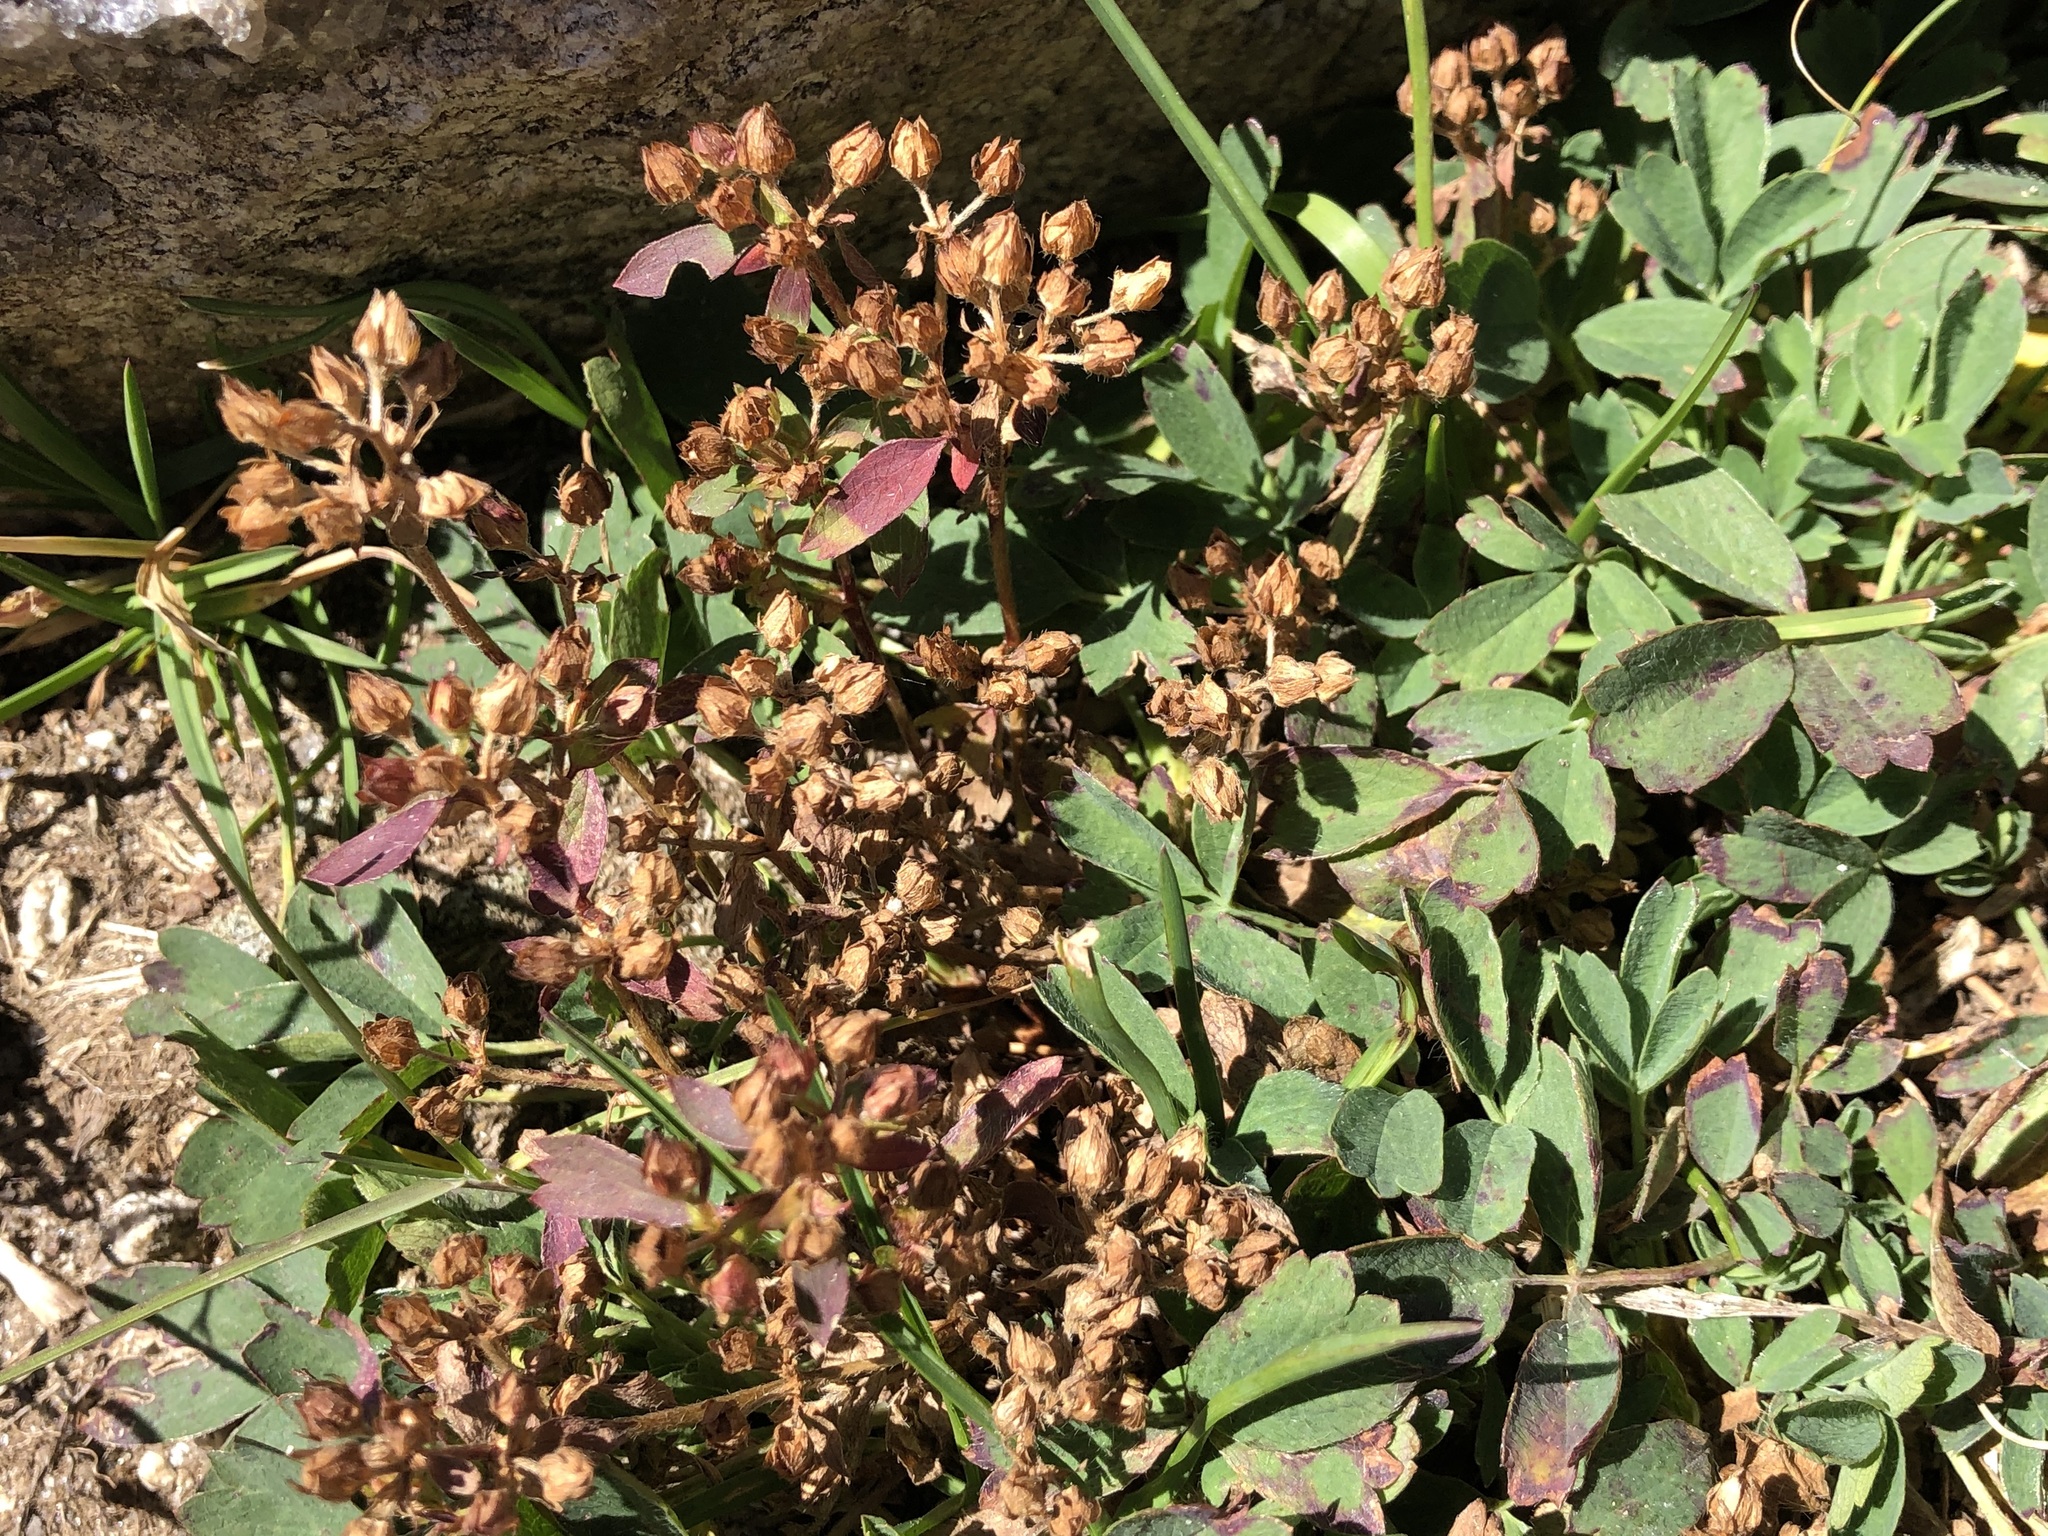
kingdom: Plantae
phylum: Tracheophyta
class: Magnoliopsida
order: Rosales
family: Rosaceae
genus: Sibbaldia
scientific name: Sibbaldia procumbens
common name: Creeping sibbaldia
